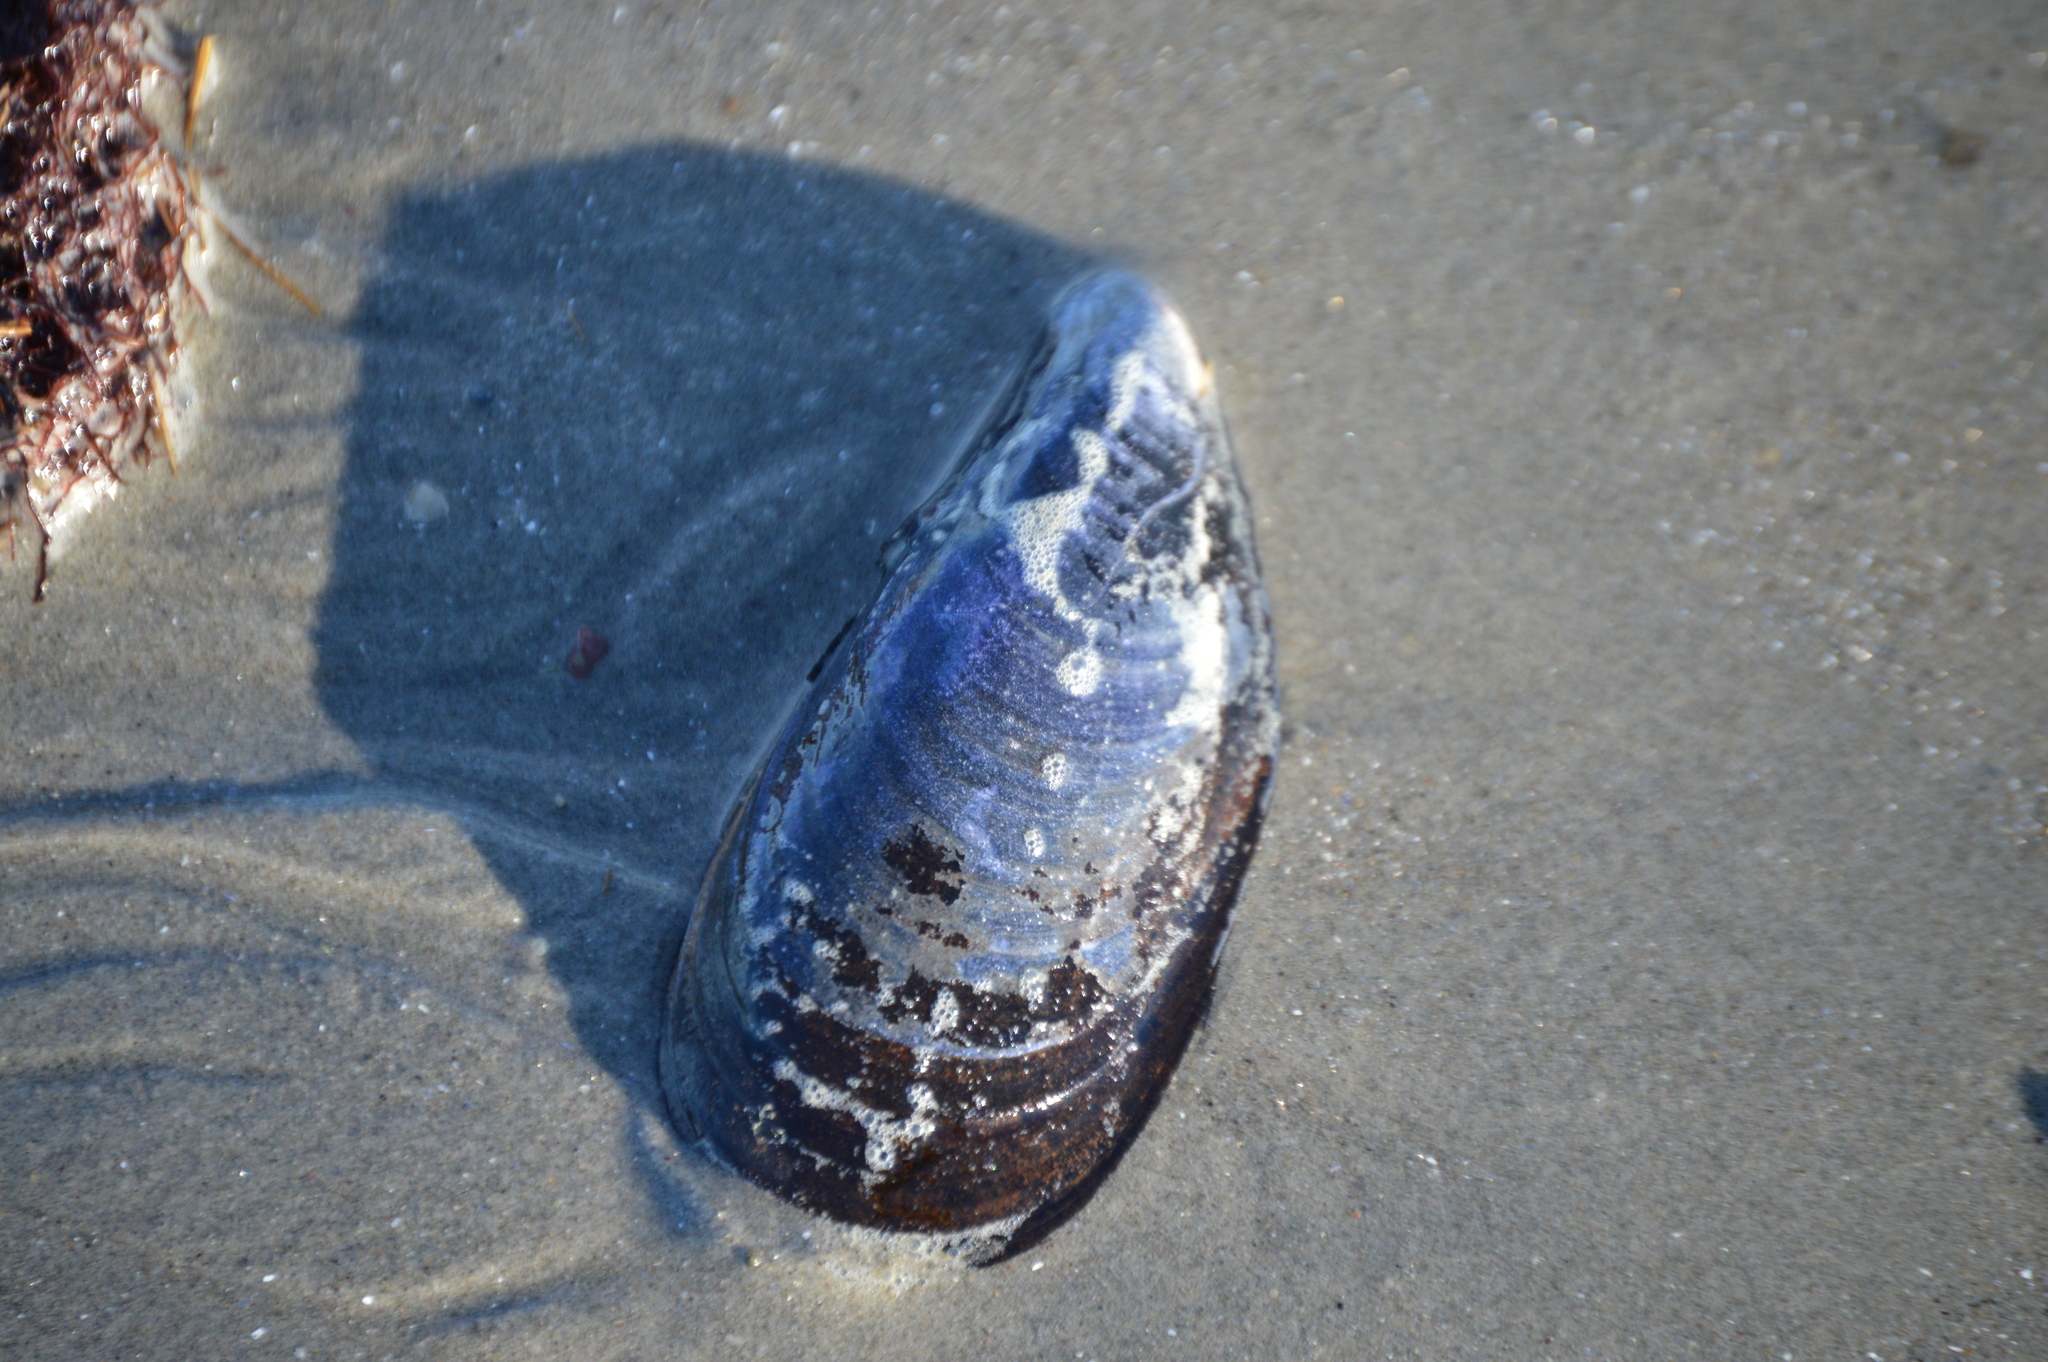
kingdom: Animalia
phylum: Mollusca
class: Bivalvia
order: Mytilida
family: Mytilidae
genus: Mytilus
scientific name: Mytilus edulis
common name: Blue mussel
